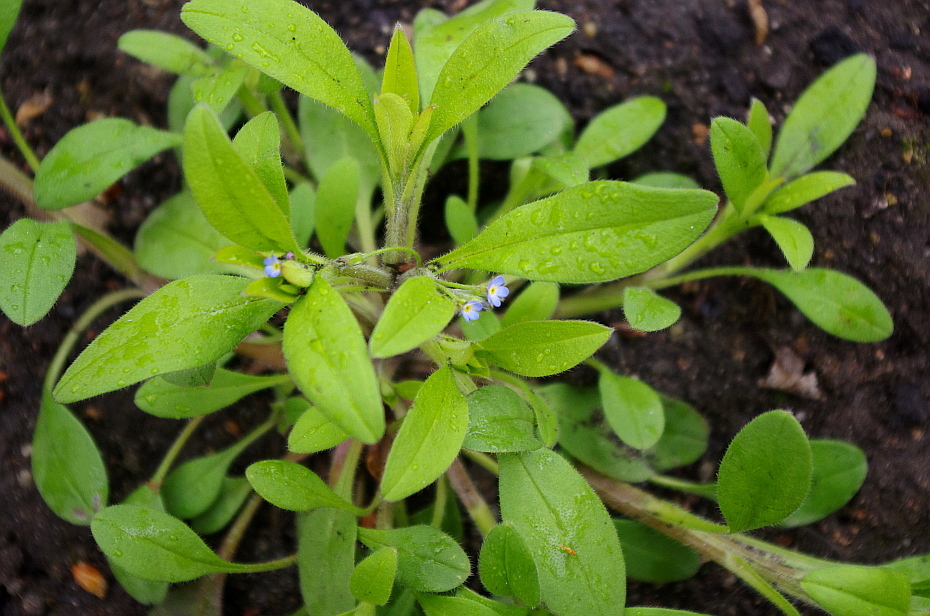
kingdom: Plantae
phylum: Tracheophyta
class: Magnoliopsida
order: Boraginales
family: Boraginaceae
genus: Myosotis
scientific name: Myosotis sparsiflora
